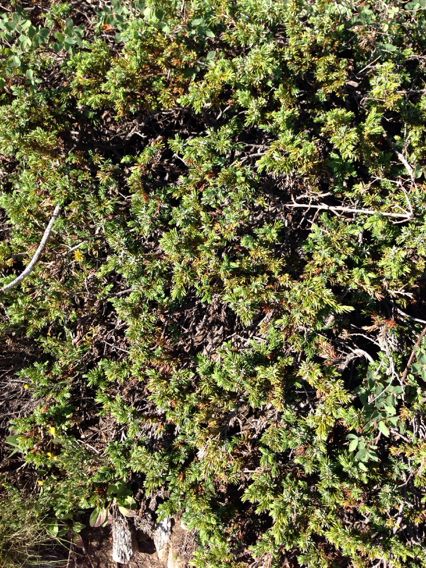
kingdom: Plantae
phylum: Tracheophyta
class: Pinopsida
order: Pinales
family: Cupressaceae
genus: Juniperus
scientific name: Juniperus communis
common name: Common juniper
